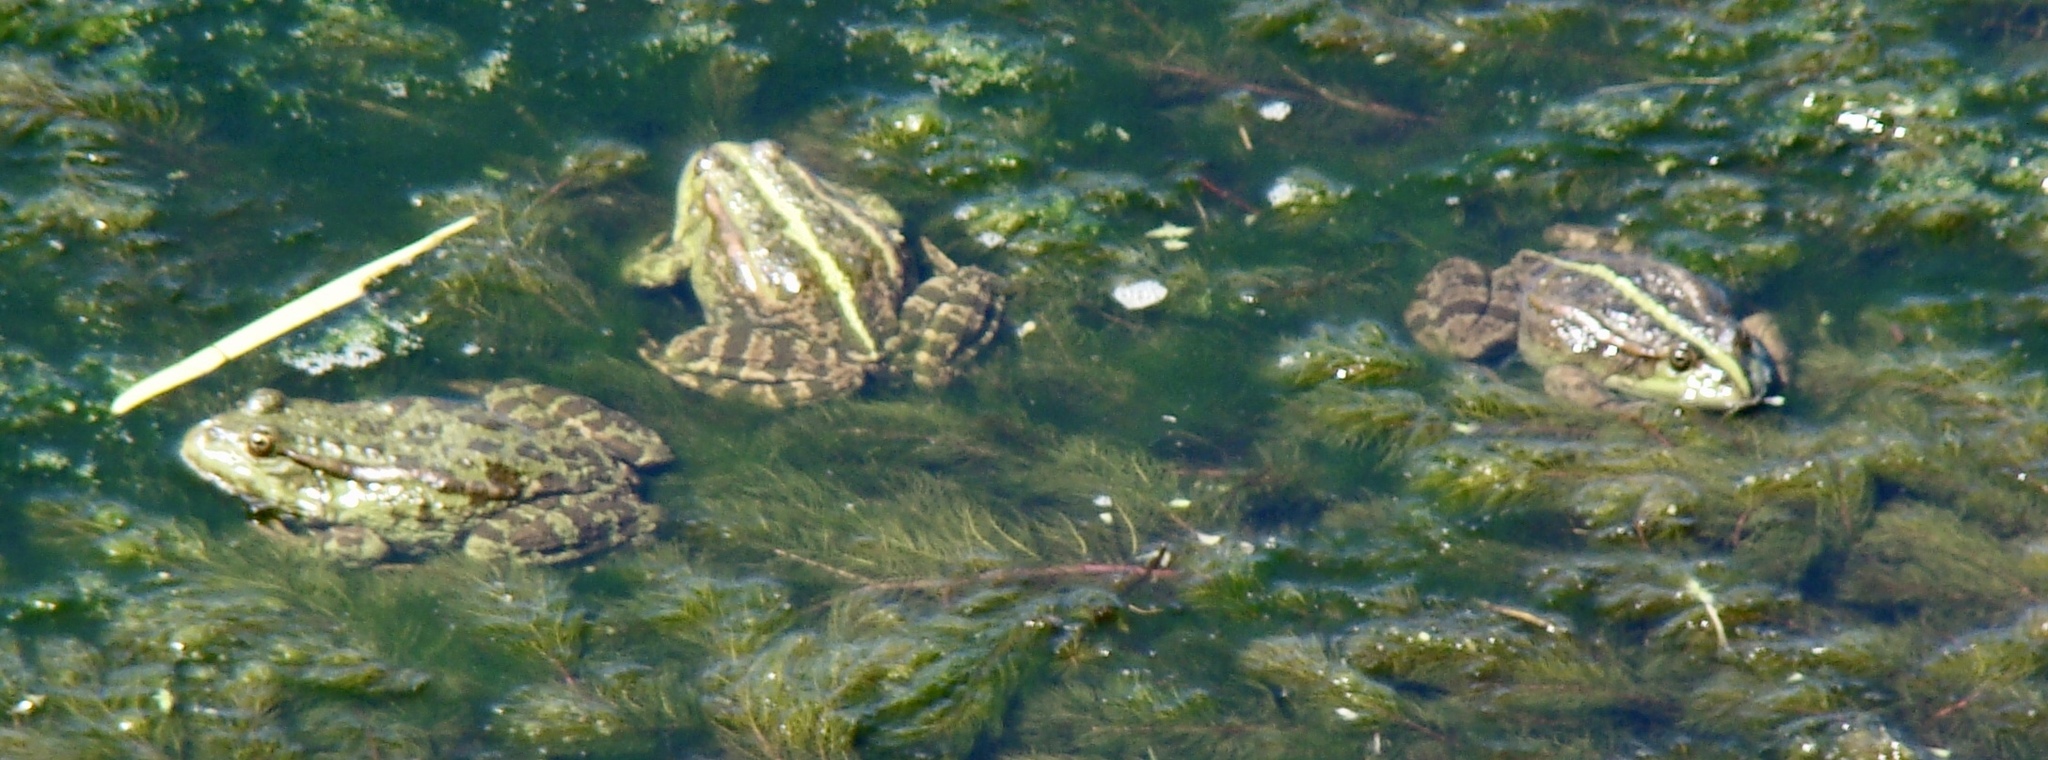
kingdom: Animalia
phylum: Chordata
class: Amphibia
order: Anura
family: Ranidae
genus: Pelophylax
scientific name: Pelophylax ridibundus
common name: Marsh frog
